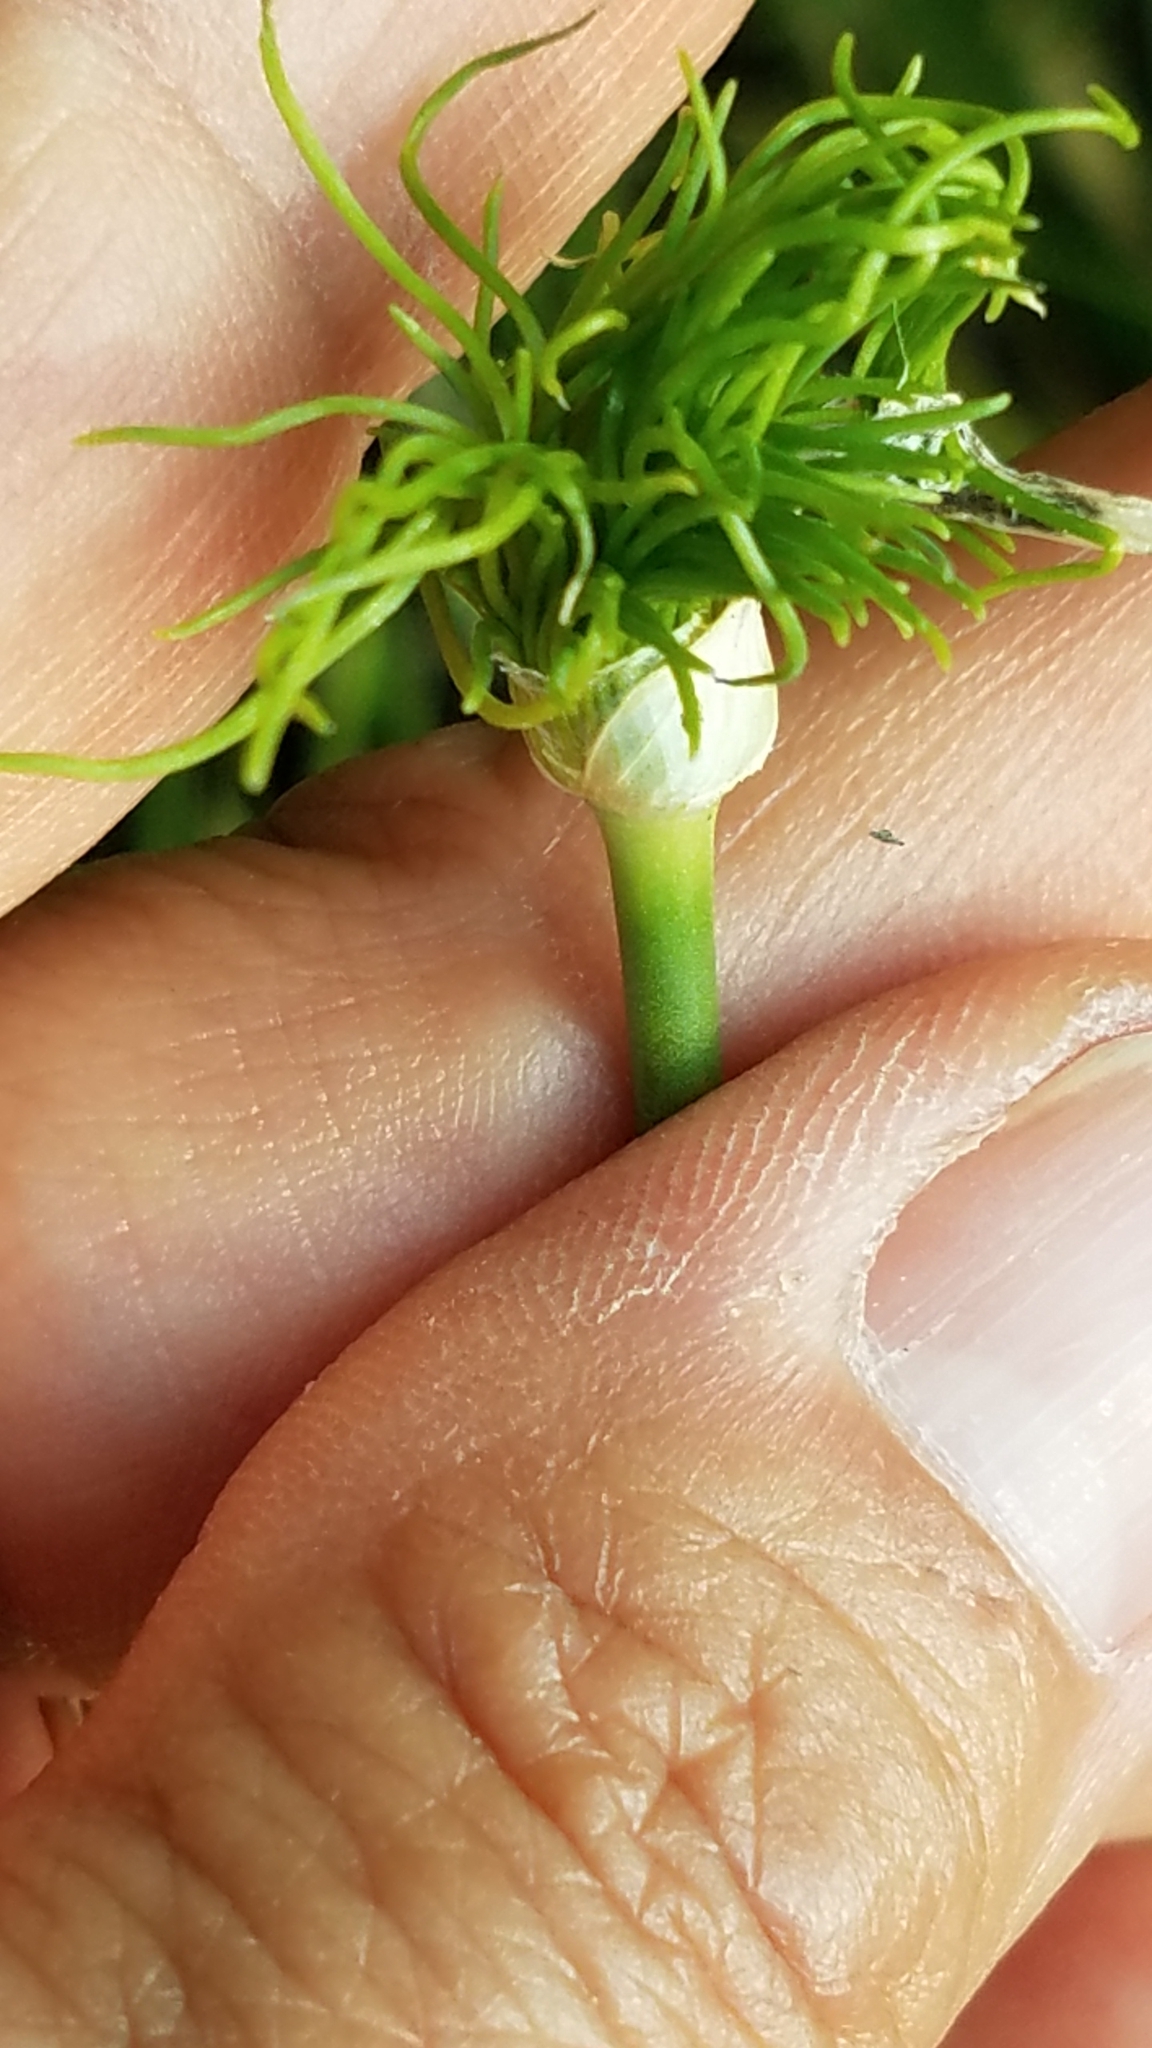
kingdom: Plantae
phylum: Tracheophyta
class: Liliopsida
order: Asparagales
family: Amaryllidaceae
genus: Allium
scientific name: Allium vineale
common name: Crow garlic
